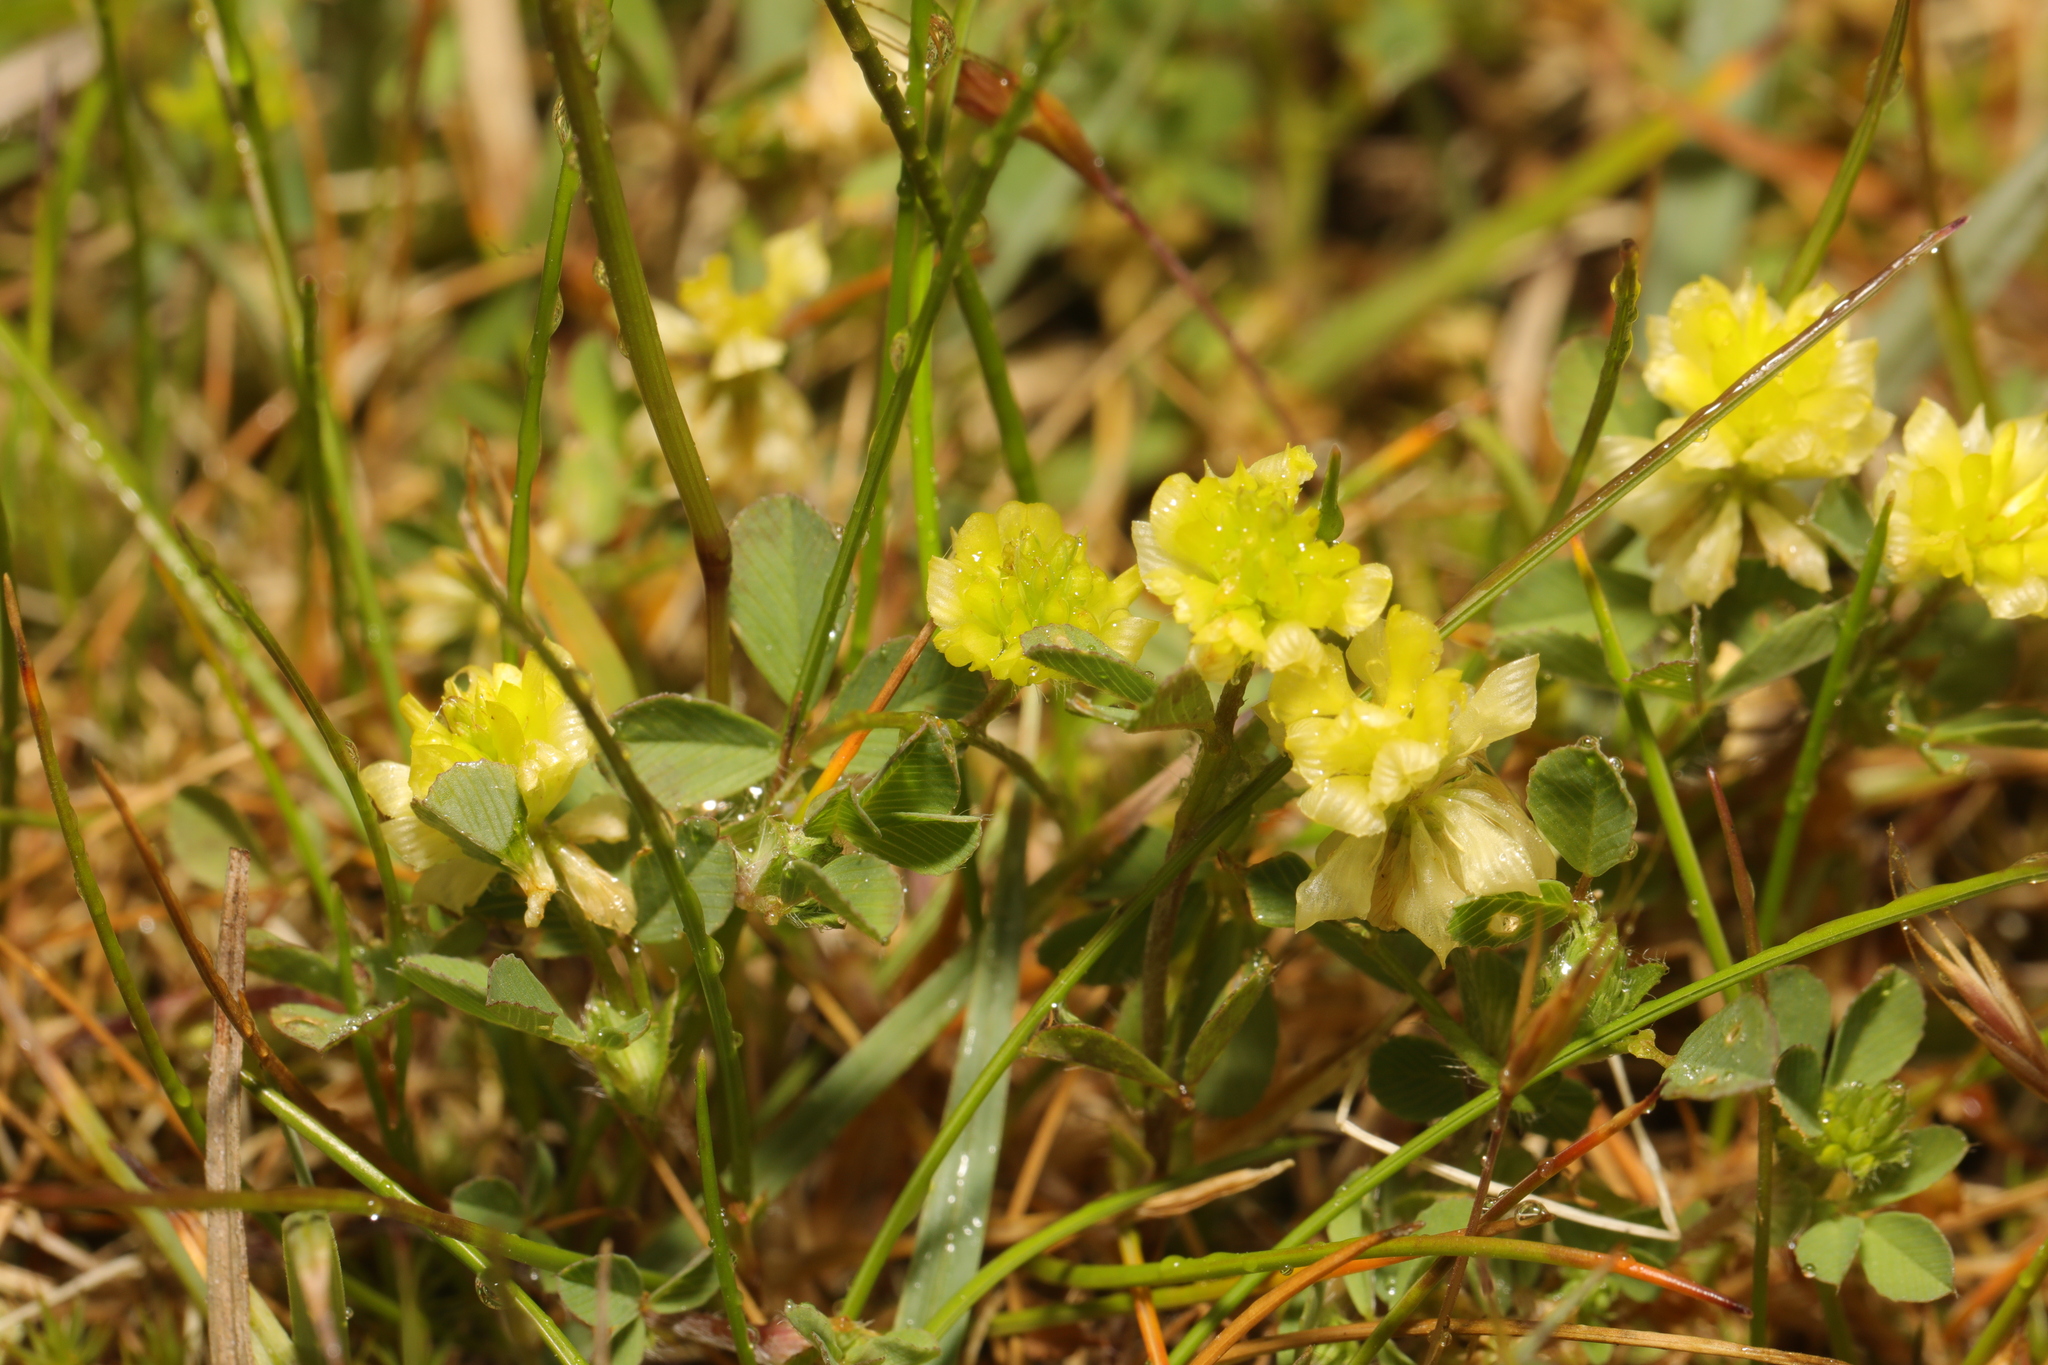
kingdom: Plantae
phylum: Tracheophyta
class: Magnoliopsida
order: Fabales
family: Fabaceae
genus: Trifolium
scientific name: Trifolium campestre
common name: Field clover
